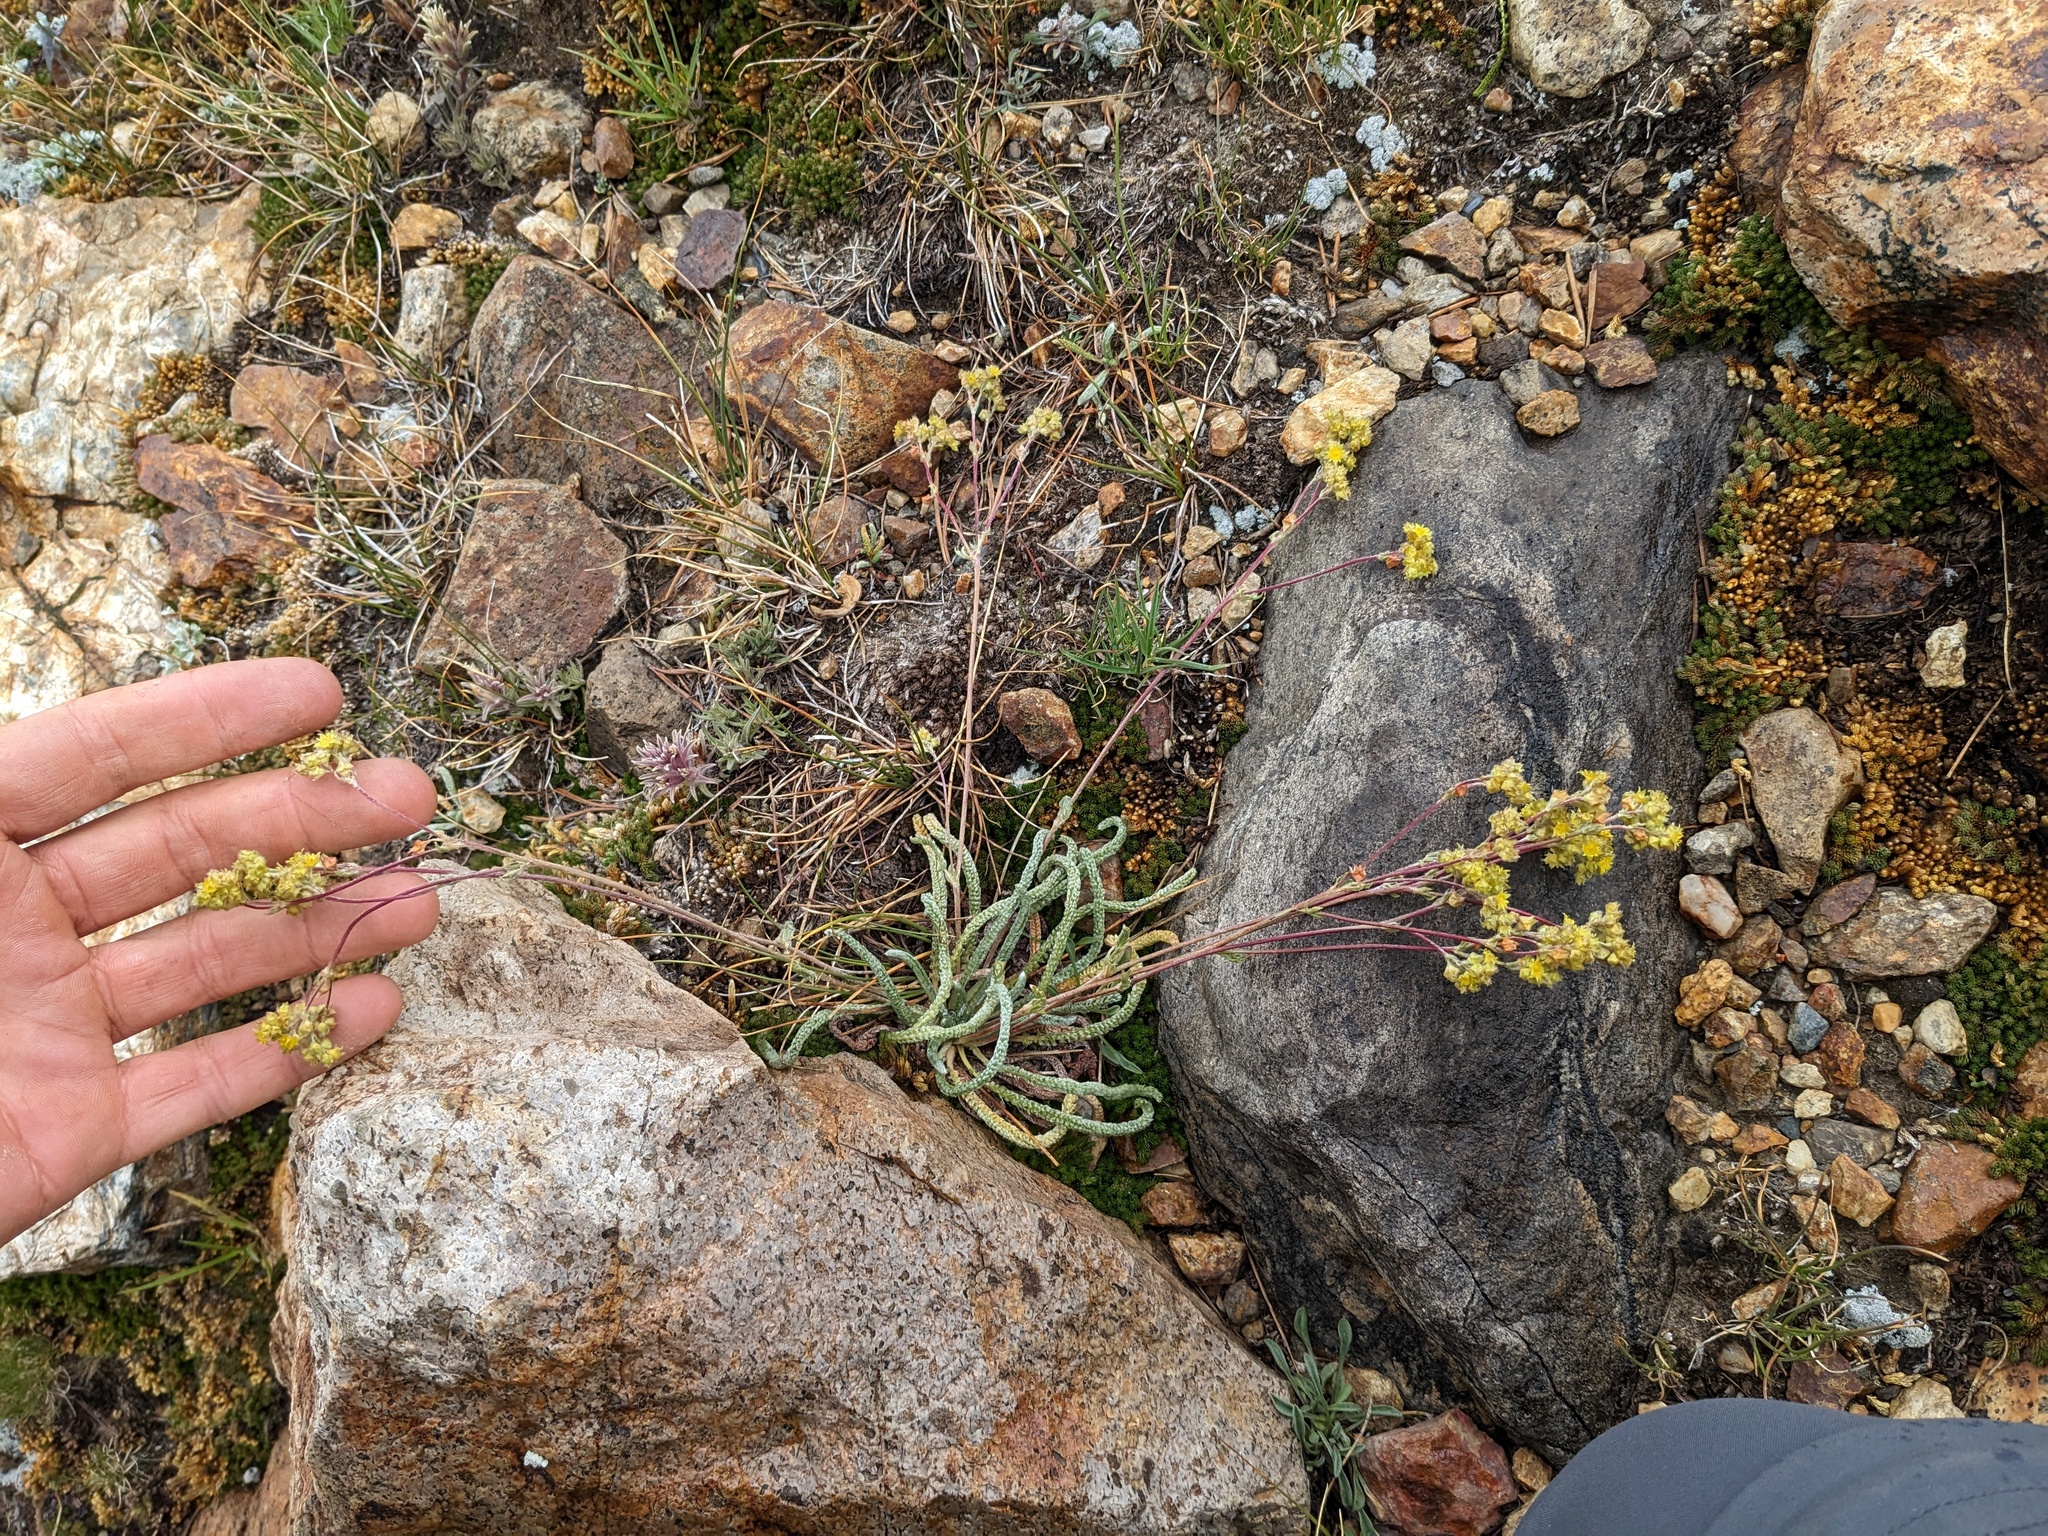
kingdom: Plantae
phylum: Tracheophyta
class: Magnoliopsida
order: Rosales
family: Rosaceae
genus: Potentilla
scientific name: Potentilla muirii
